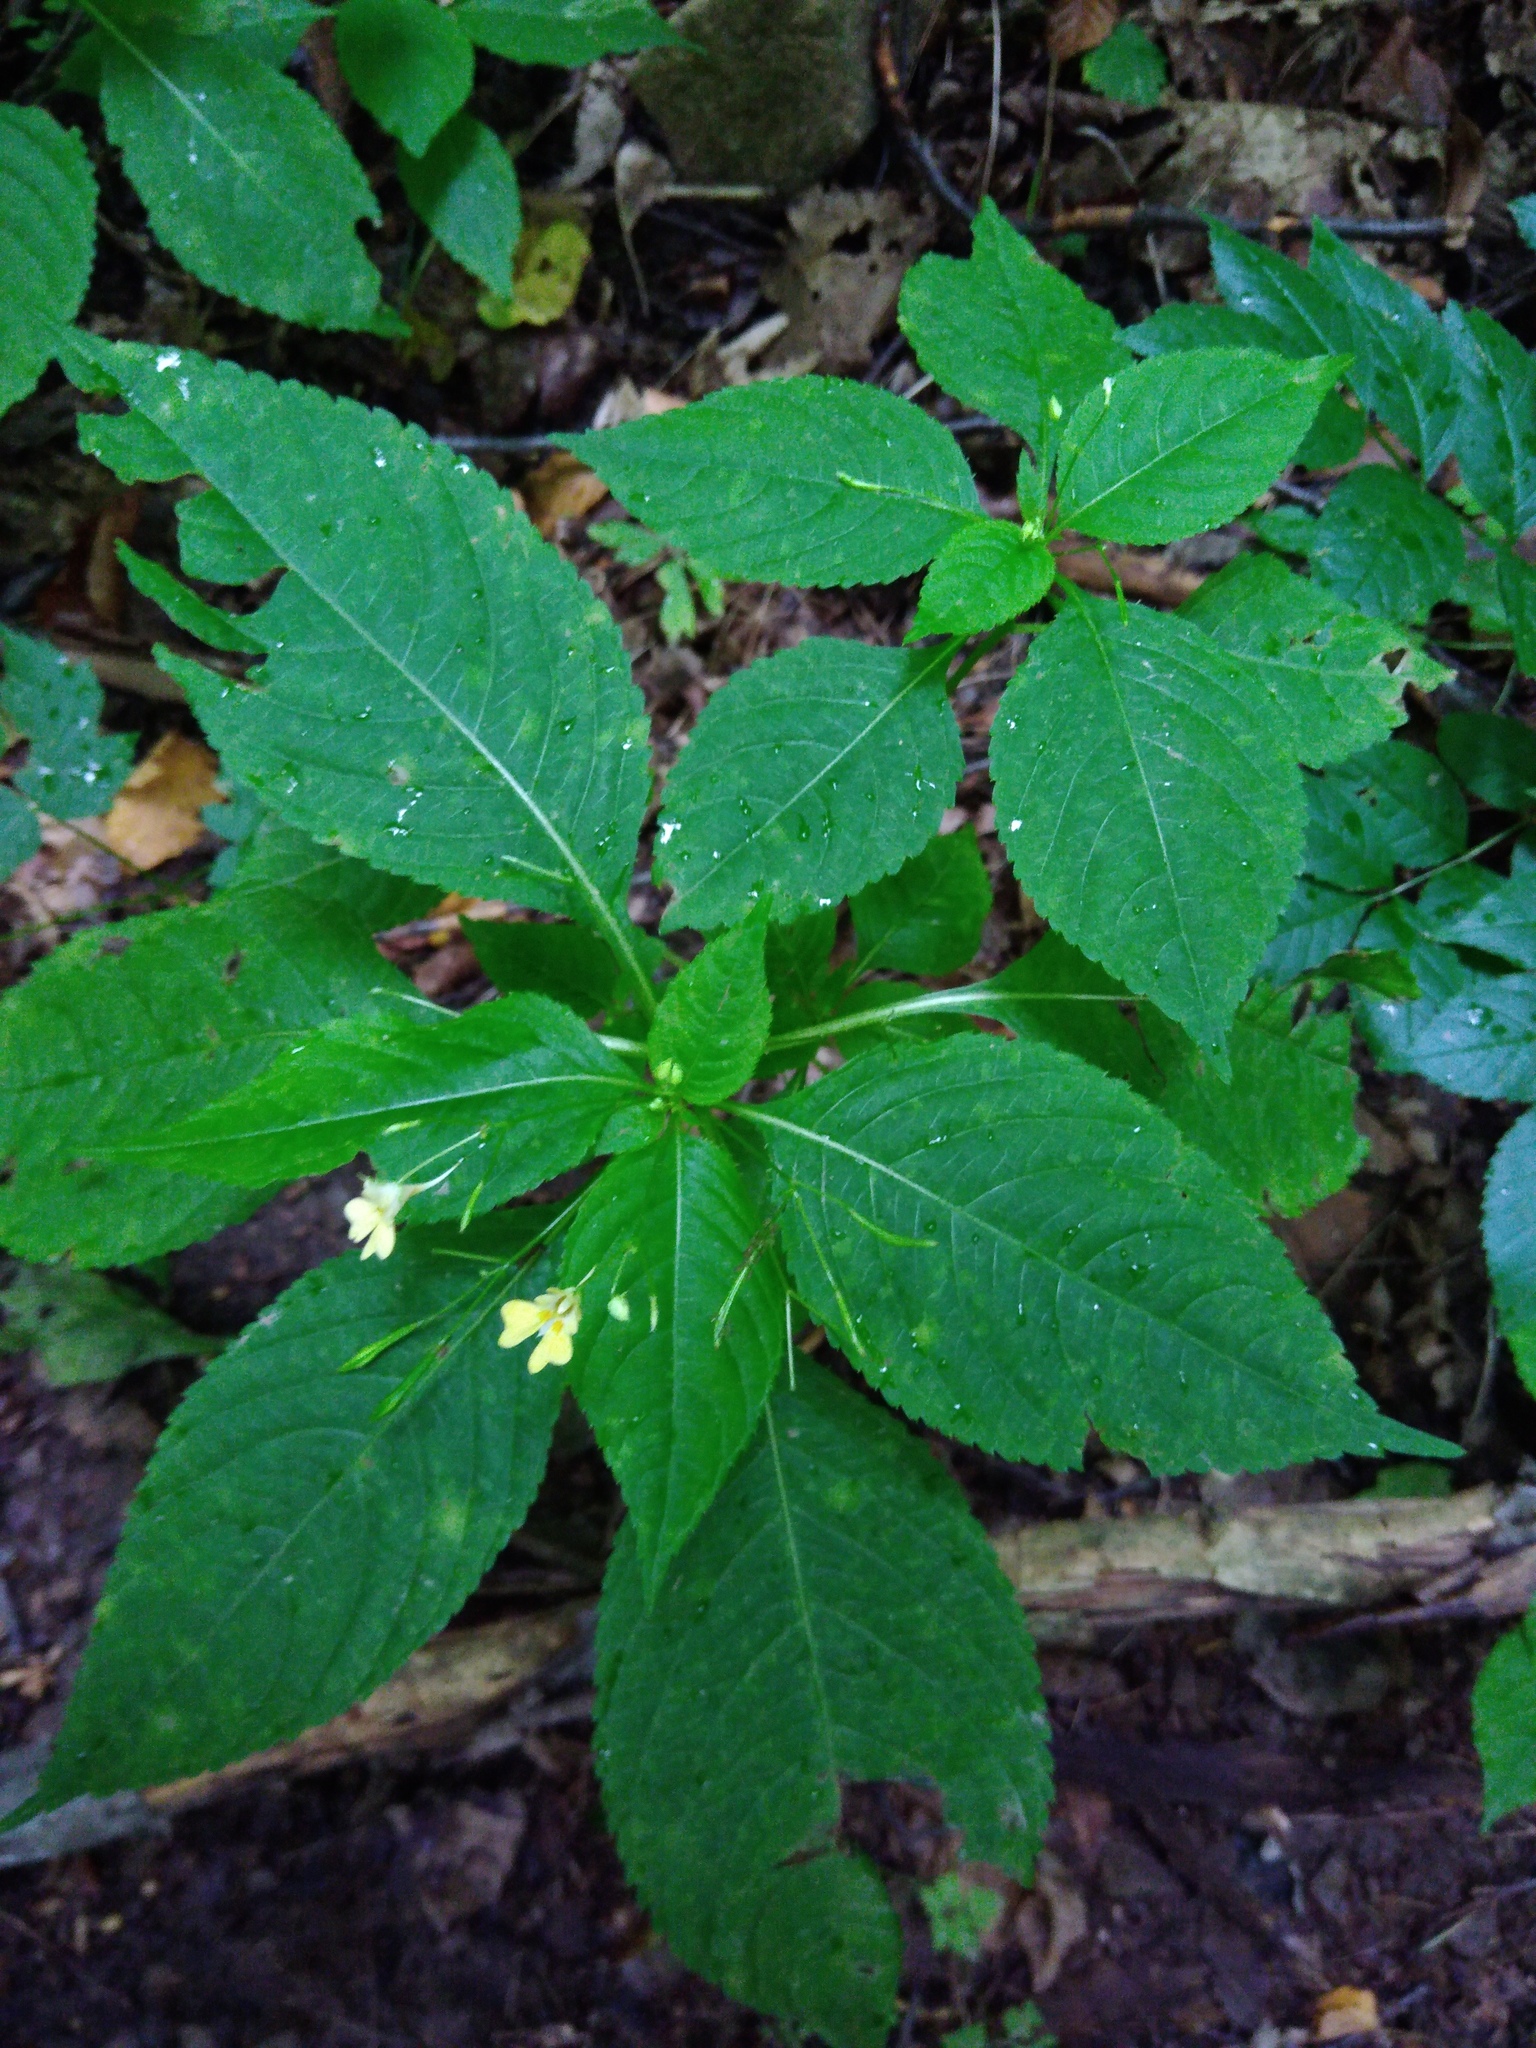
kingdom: Plantae
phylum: Tracheophyta
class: Magnoliopsida
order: Ericales
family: Balsaminaceae
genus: Impatiens
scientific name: Impatiens parviflora
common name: Small balsam
